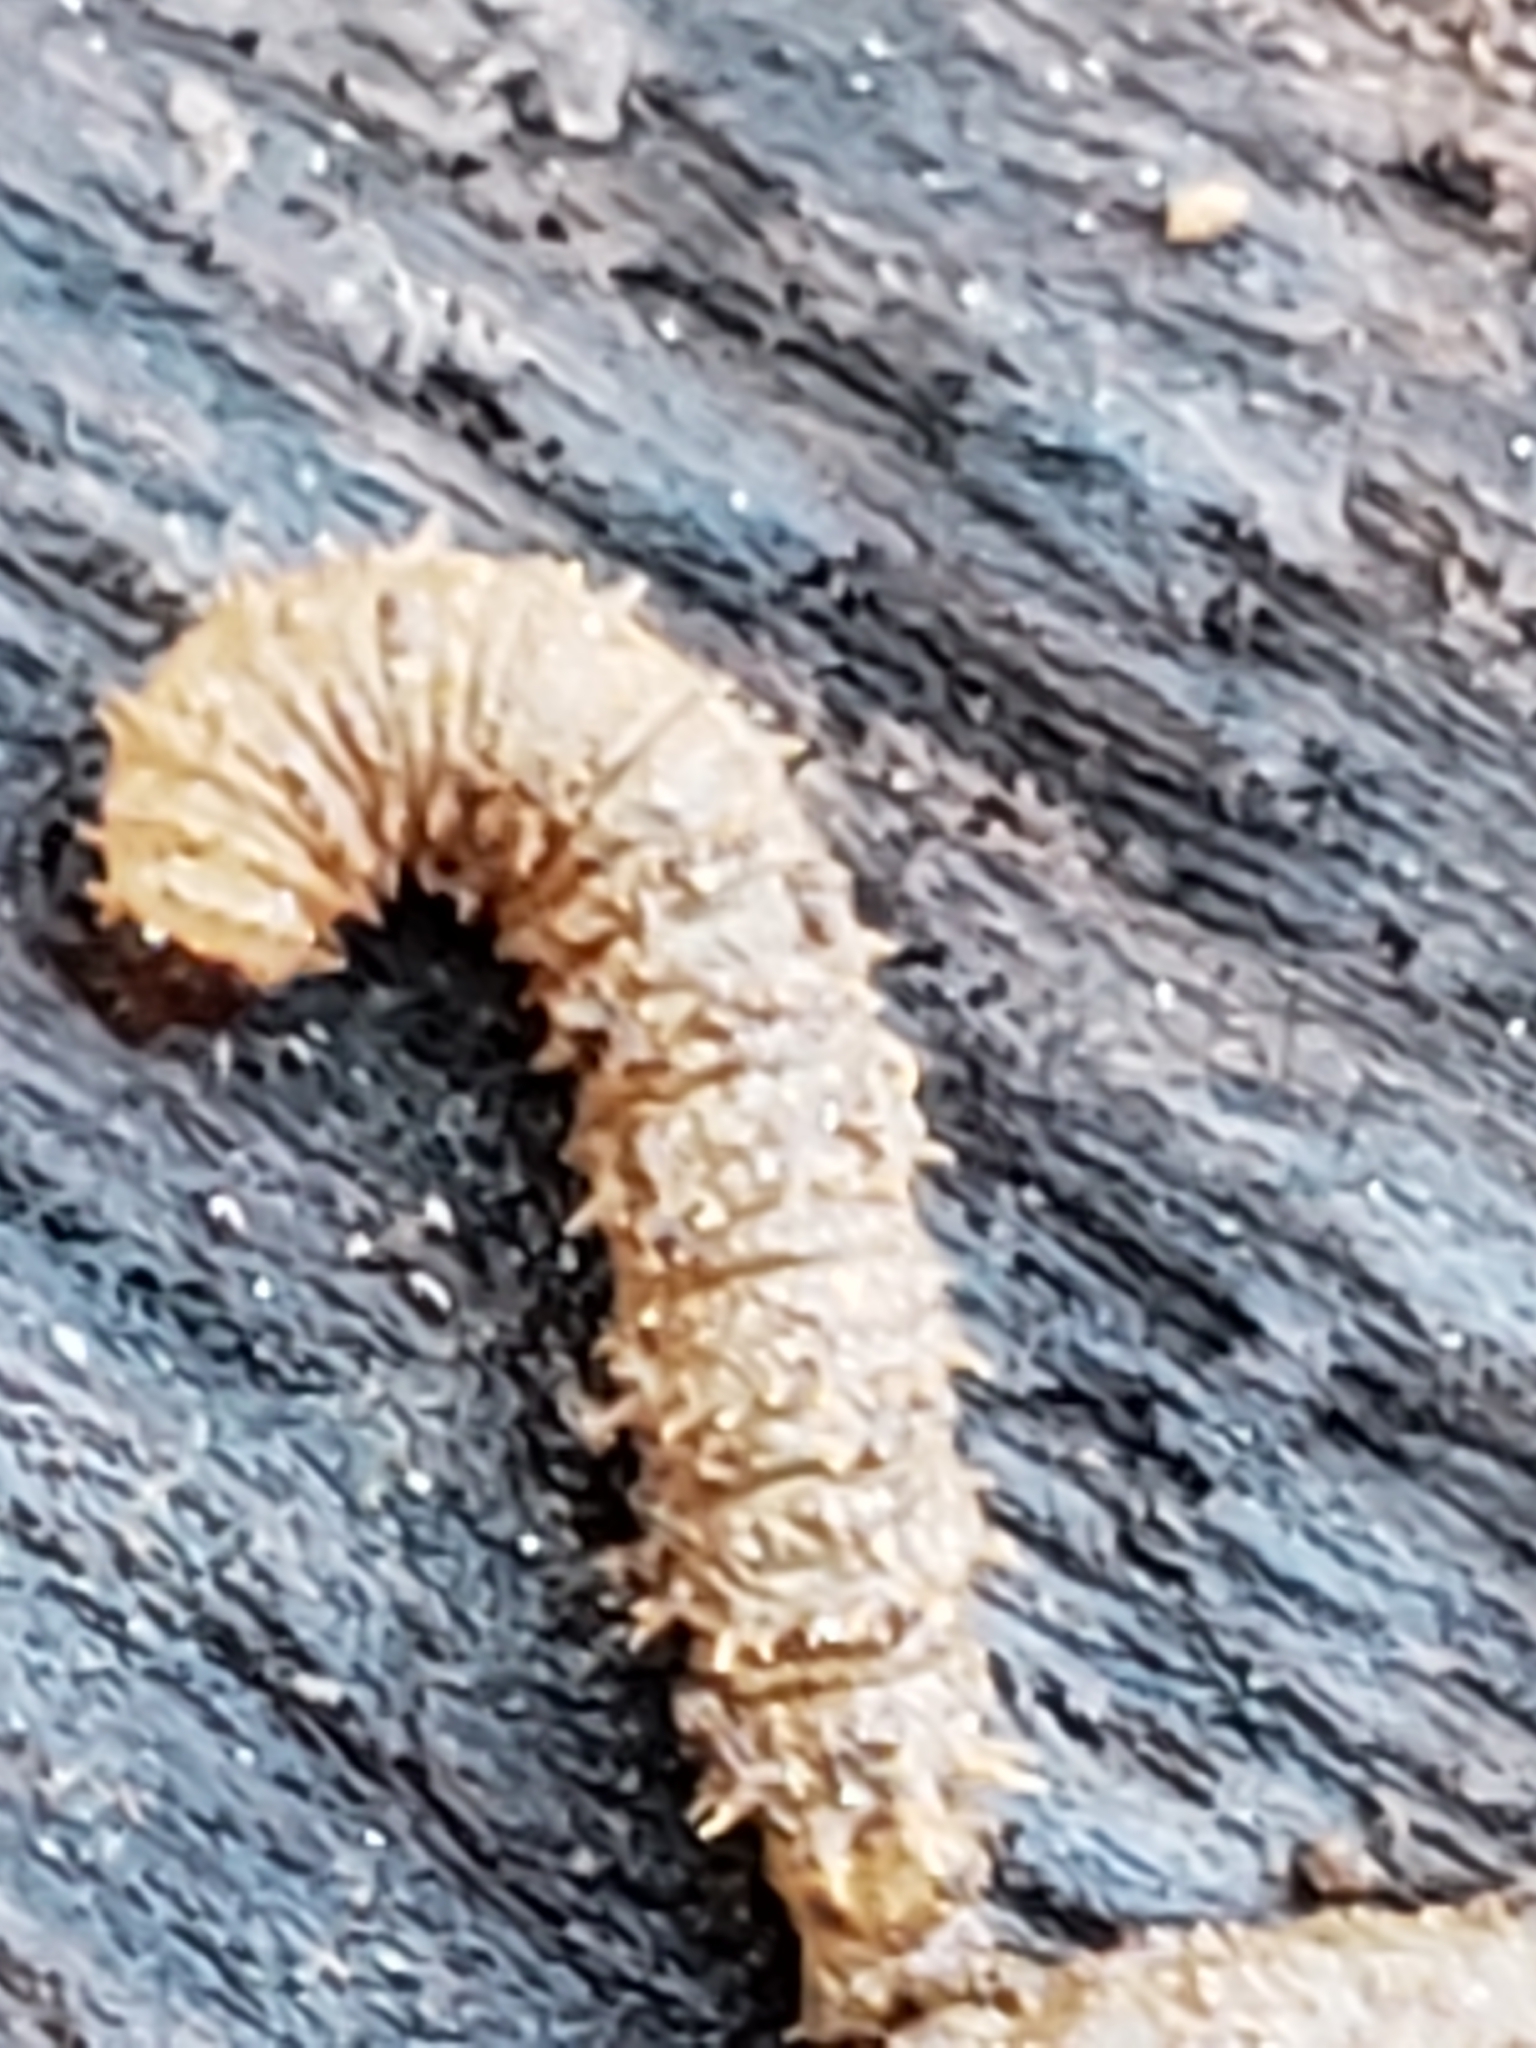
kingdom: Animalia
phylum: Arthropoda
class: Insecta
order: Diptera
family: Bibionidae
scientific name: Bibionidae
